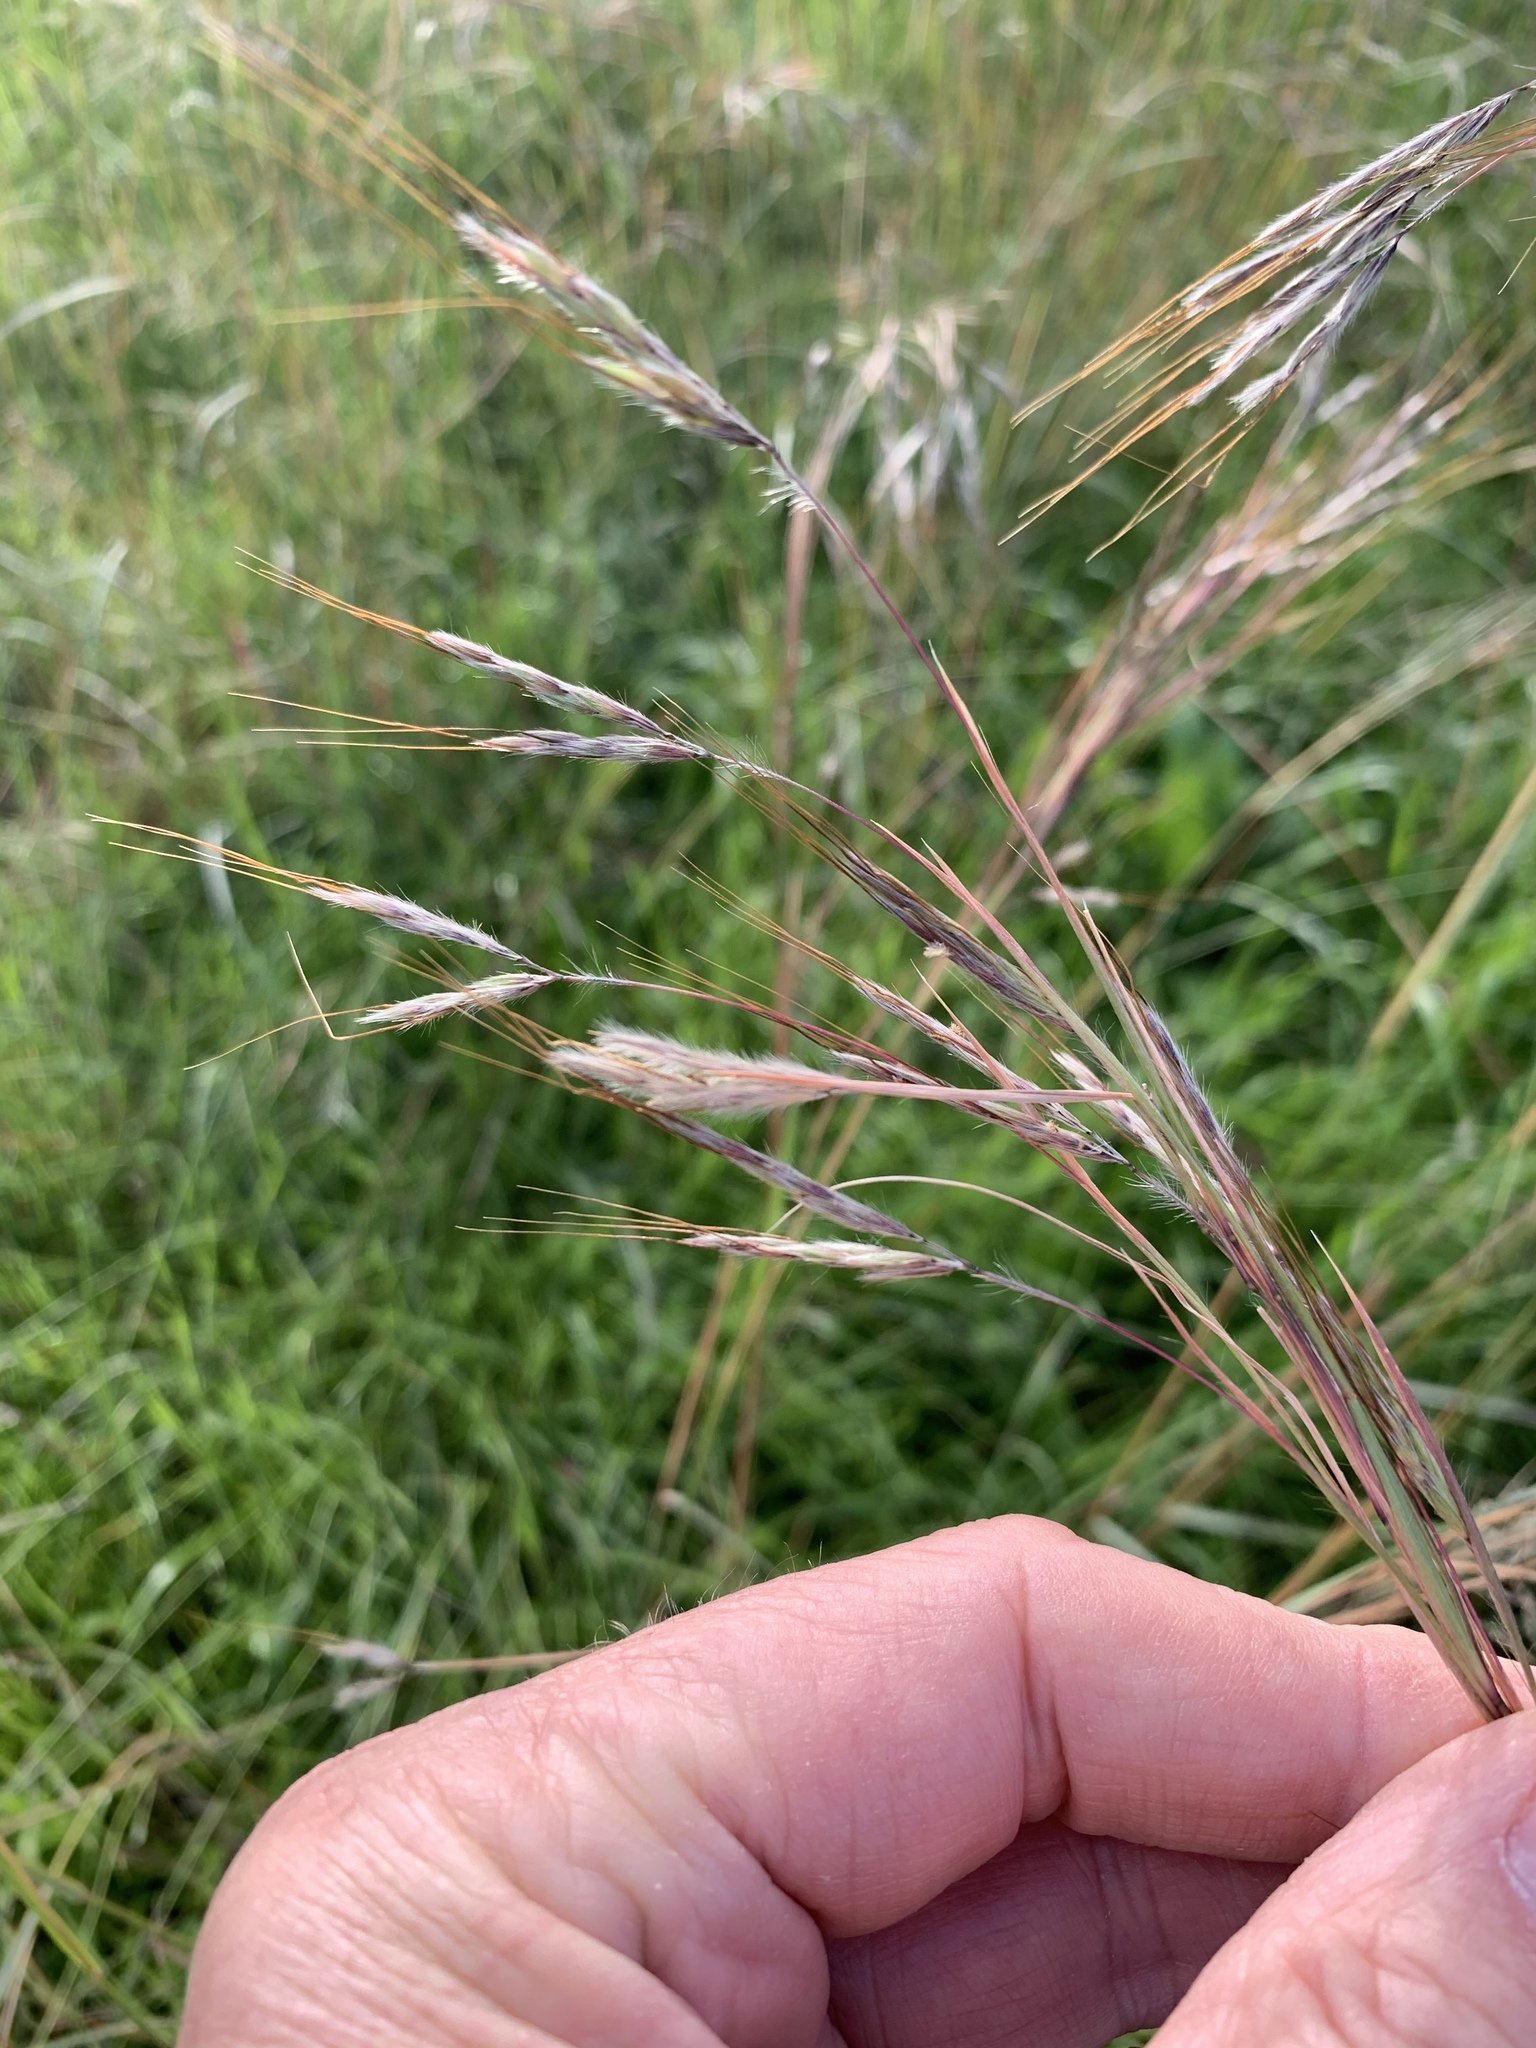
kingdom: Plantae
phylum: Tracheophyta
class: Liliopsida
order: Poales
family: Poaceae
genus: Hyparrhenia
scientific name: Hyparrhenia hirta
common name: Thatching grass
